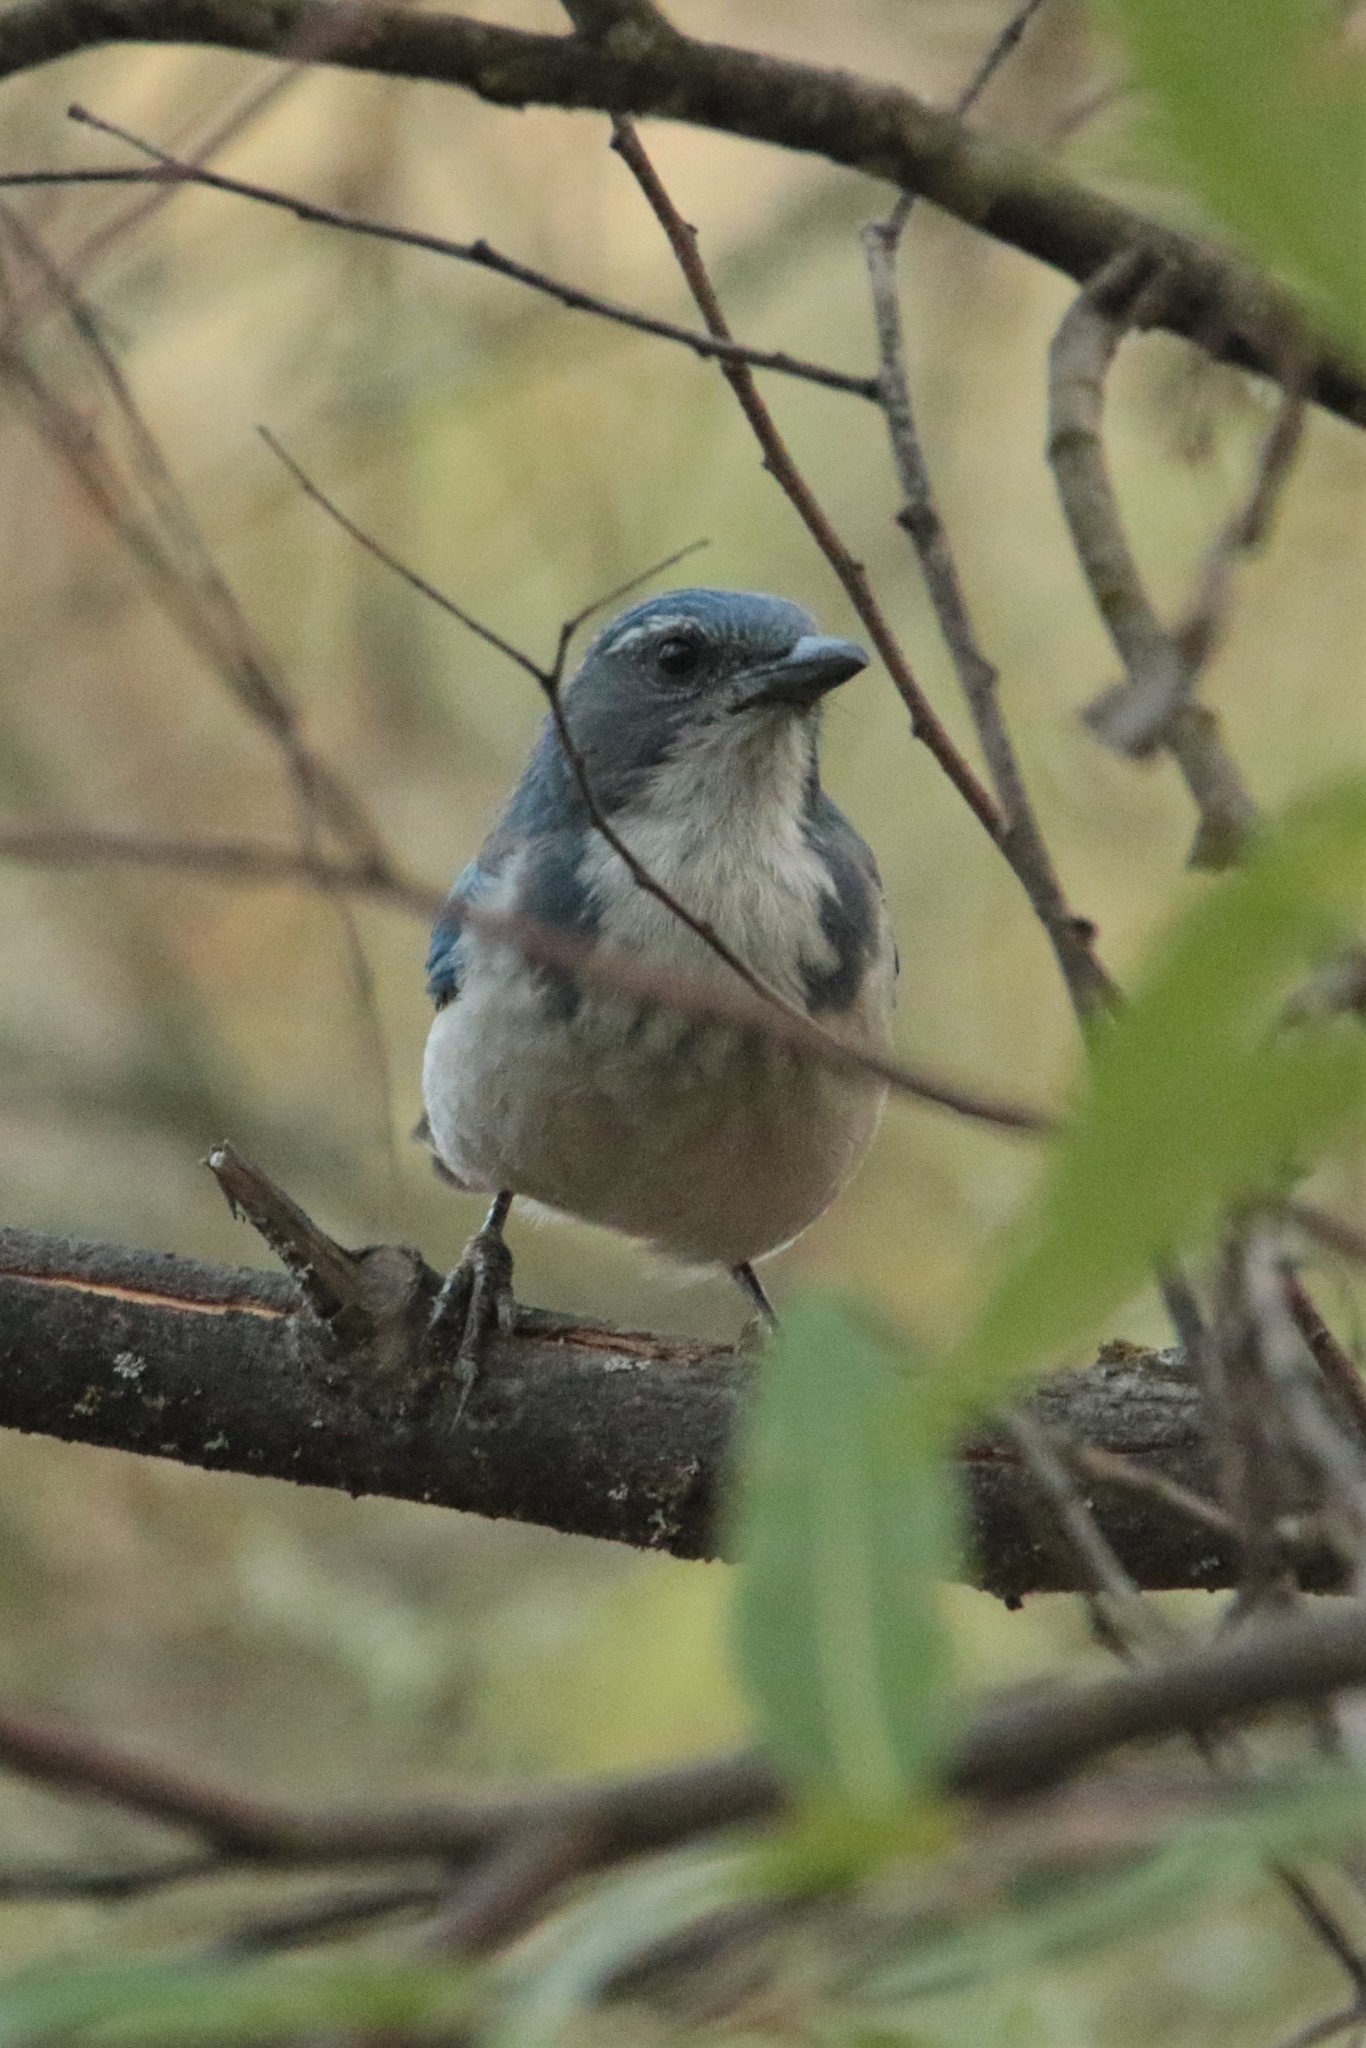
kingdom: Animalia
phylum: Chordata
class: Aves
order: Passeriformes
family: Corvidae
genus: Aphelocoma
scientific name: Aphelocoma californica
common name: California scrub-jay
